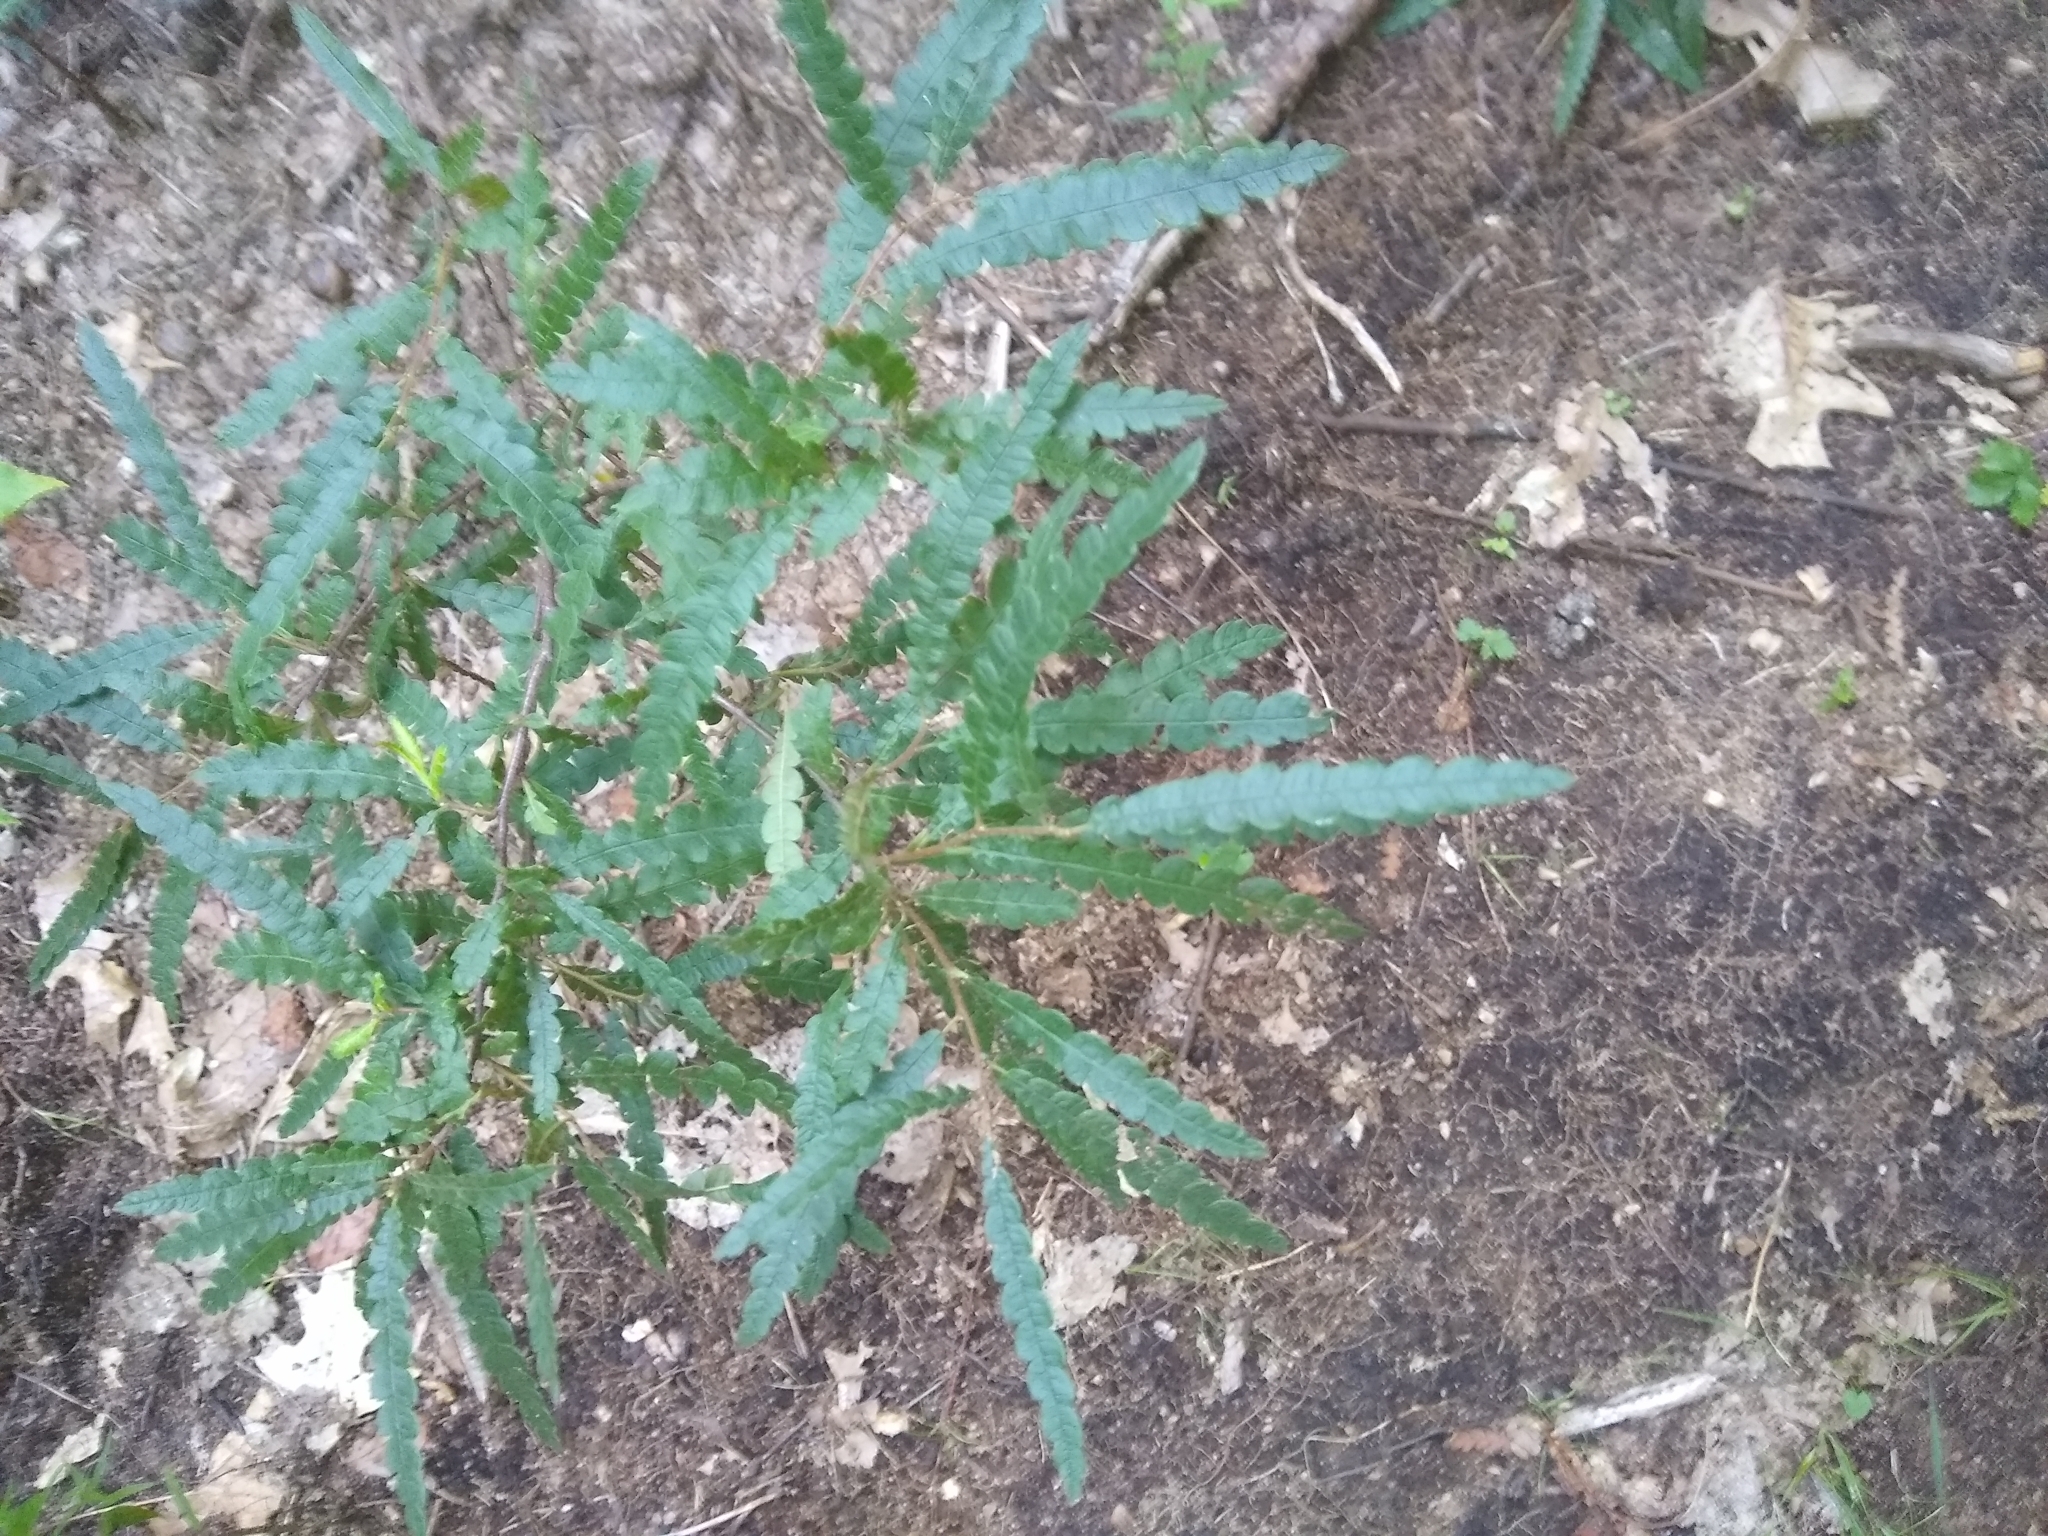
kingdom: Plantae
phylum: Tracheophyta
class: Magnoliopsida
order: Fagales
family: Myricaceae
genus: Comptonia
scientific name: Comptonia peregrina
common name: Sweet-fern
